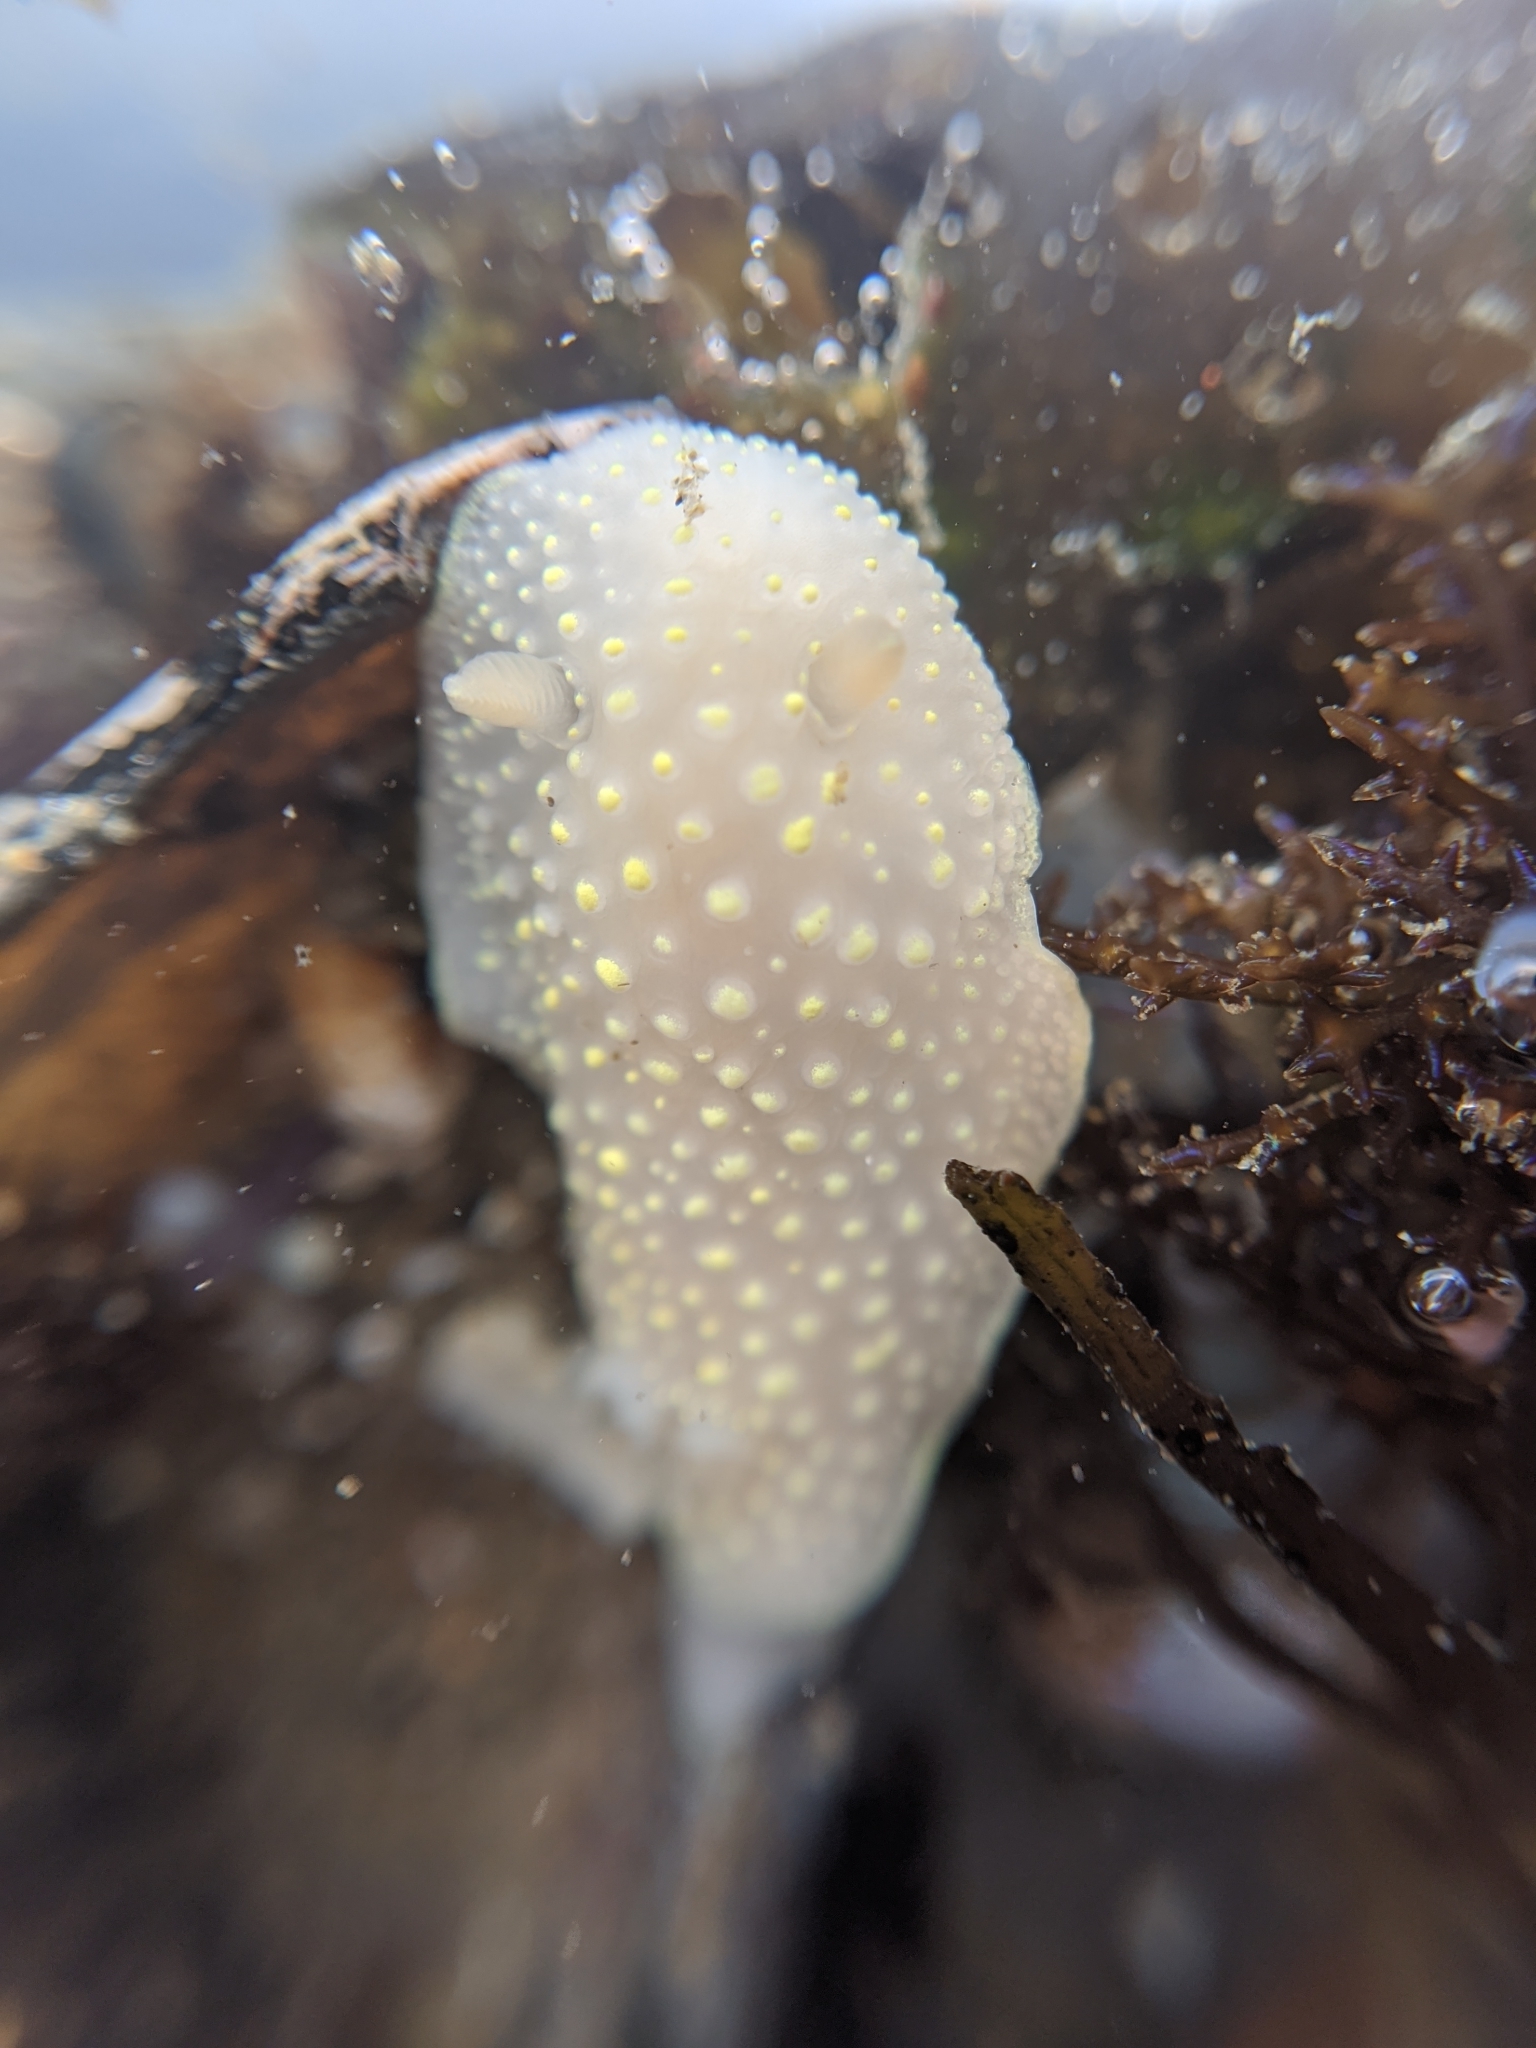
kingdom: Animalia
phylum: Mollusca
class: Gastropoda
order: Nudibranchia
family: Cadlinidae
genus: Cadlina
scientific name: Cadlina luteomarginata
